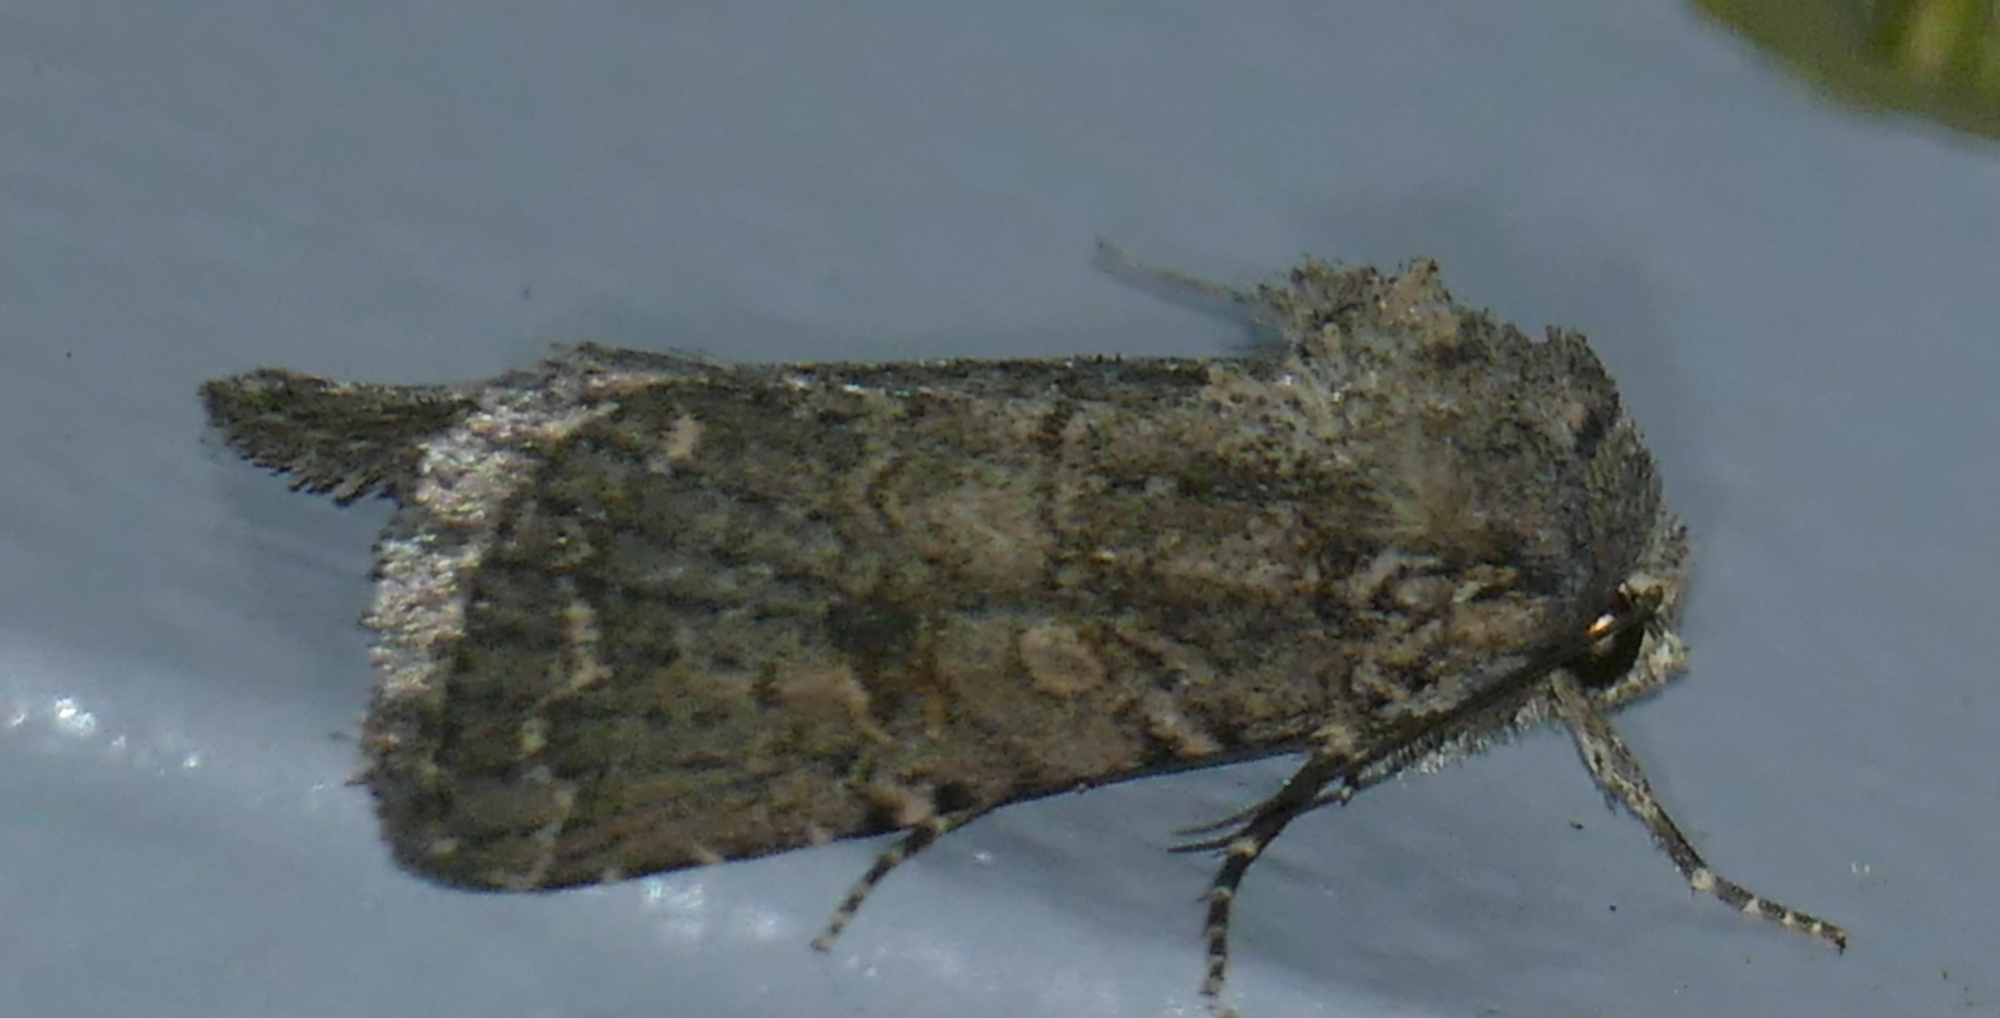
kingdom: Animalia
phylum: Arthropoda
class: Insecta
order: Lepidoptera
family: Noctuidae
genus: Trichopolia
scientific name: Trichopolia
